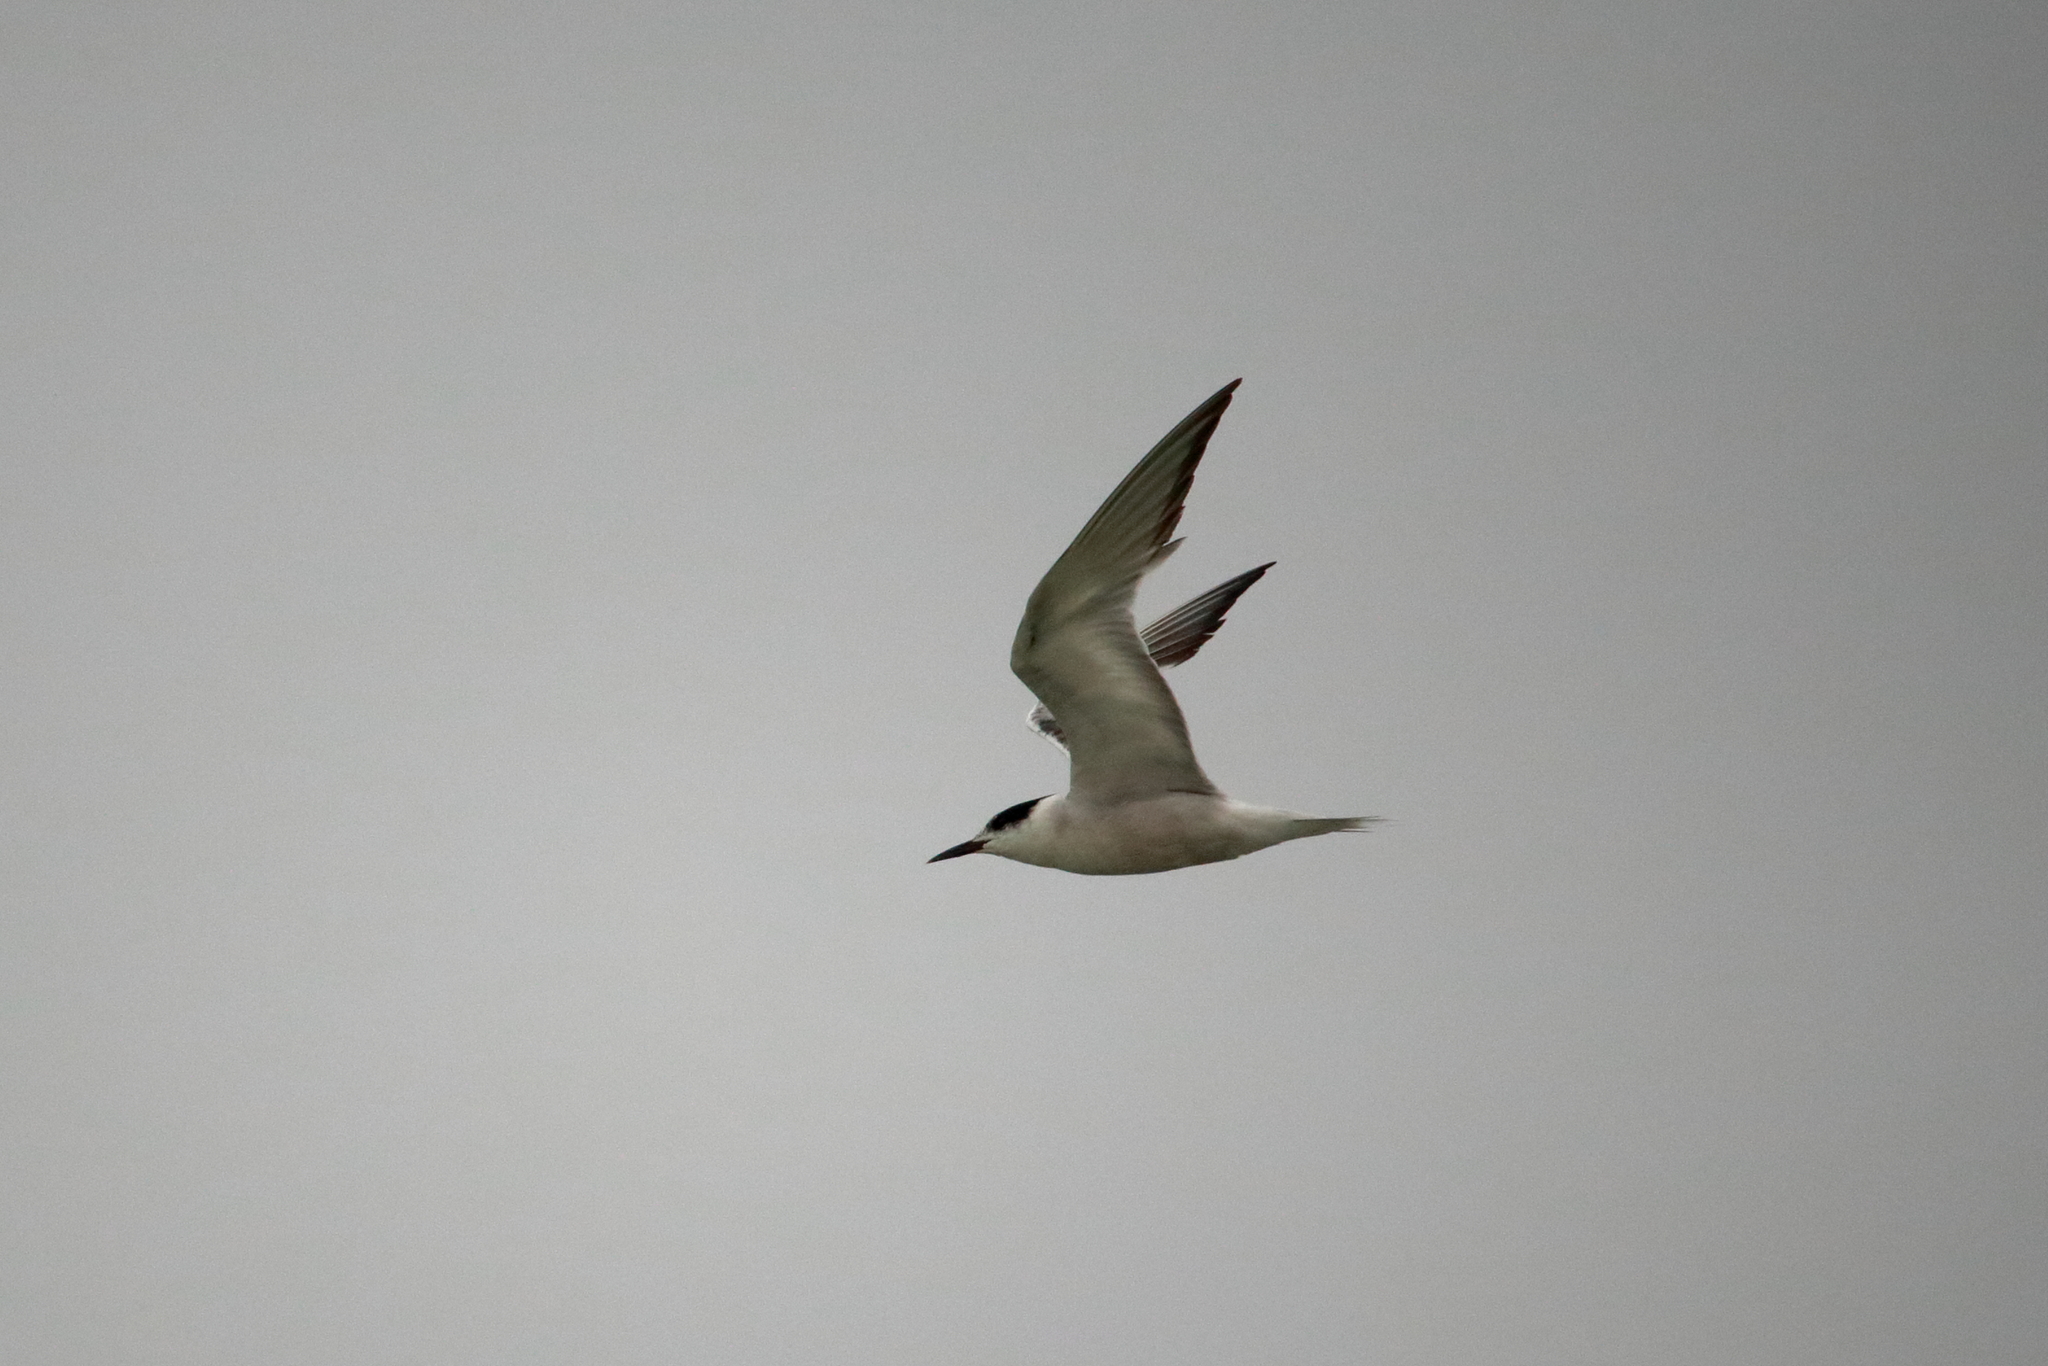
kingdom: Animalia
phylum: Chordata
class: Aves
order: Charadriiformes
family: Laridae
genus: Sterna
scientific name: Sterna hirundo
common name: Common tern
